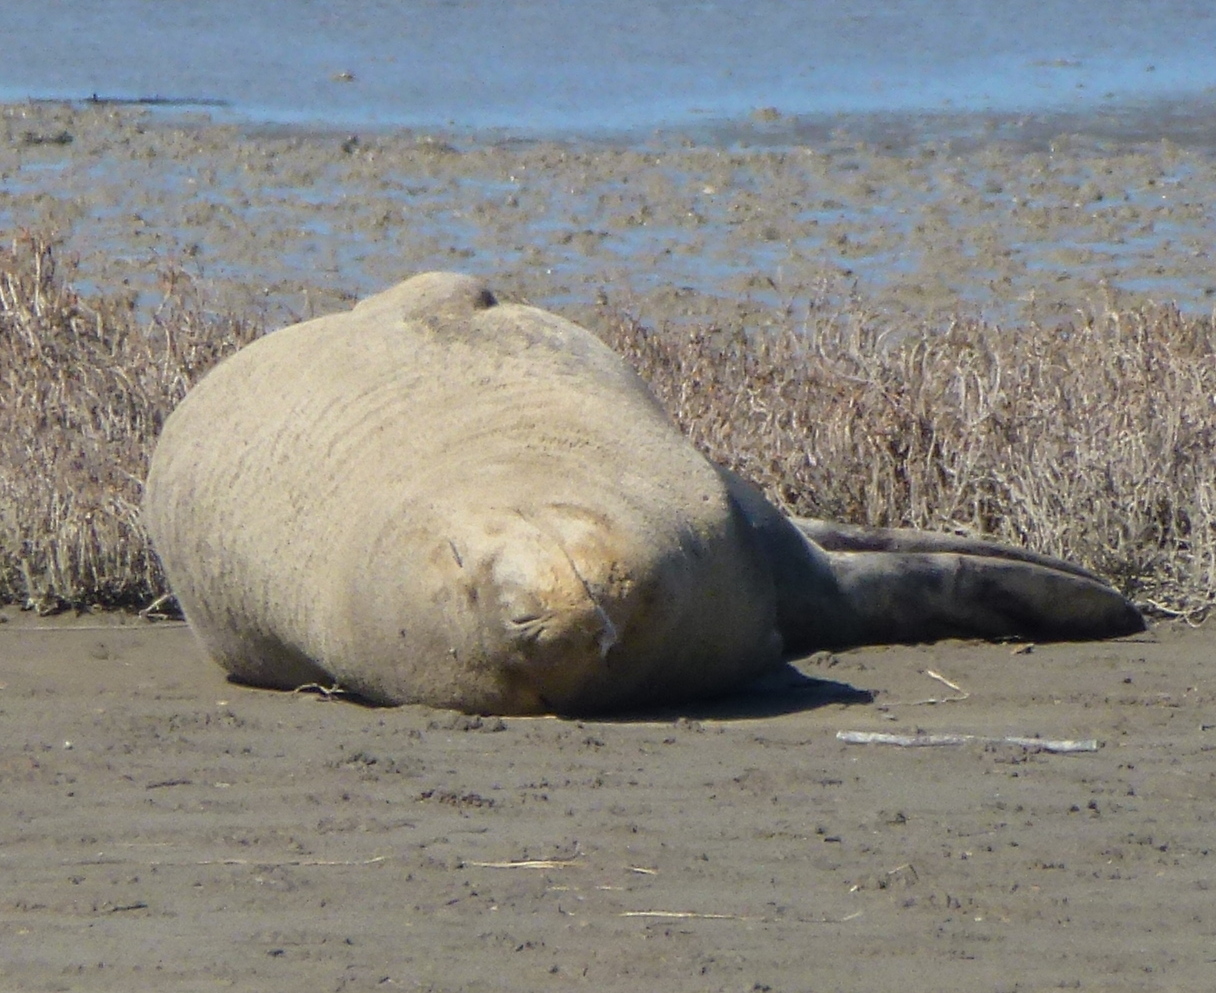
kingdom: Animalia
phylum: Chordata
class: Mammalia
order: Carnivora
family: Phocidae
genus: Hydrurga
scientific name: Hydrurga leptonyx
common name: Leopard seal
